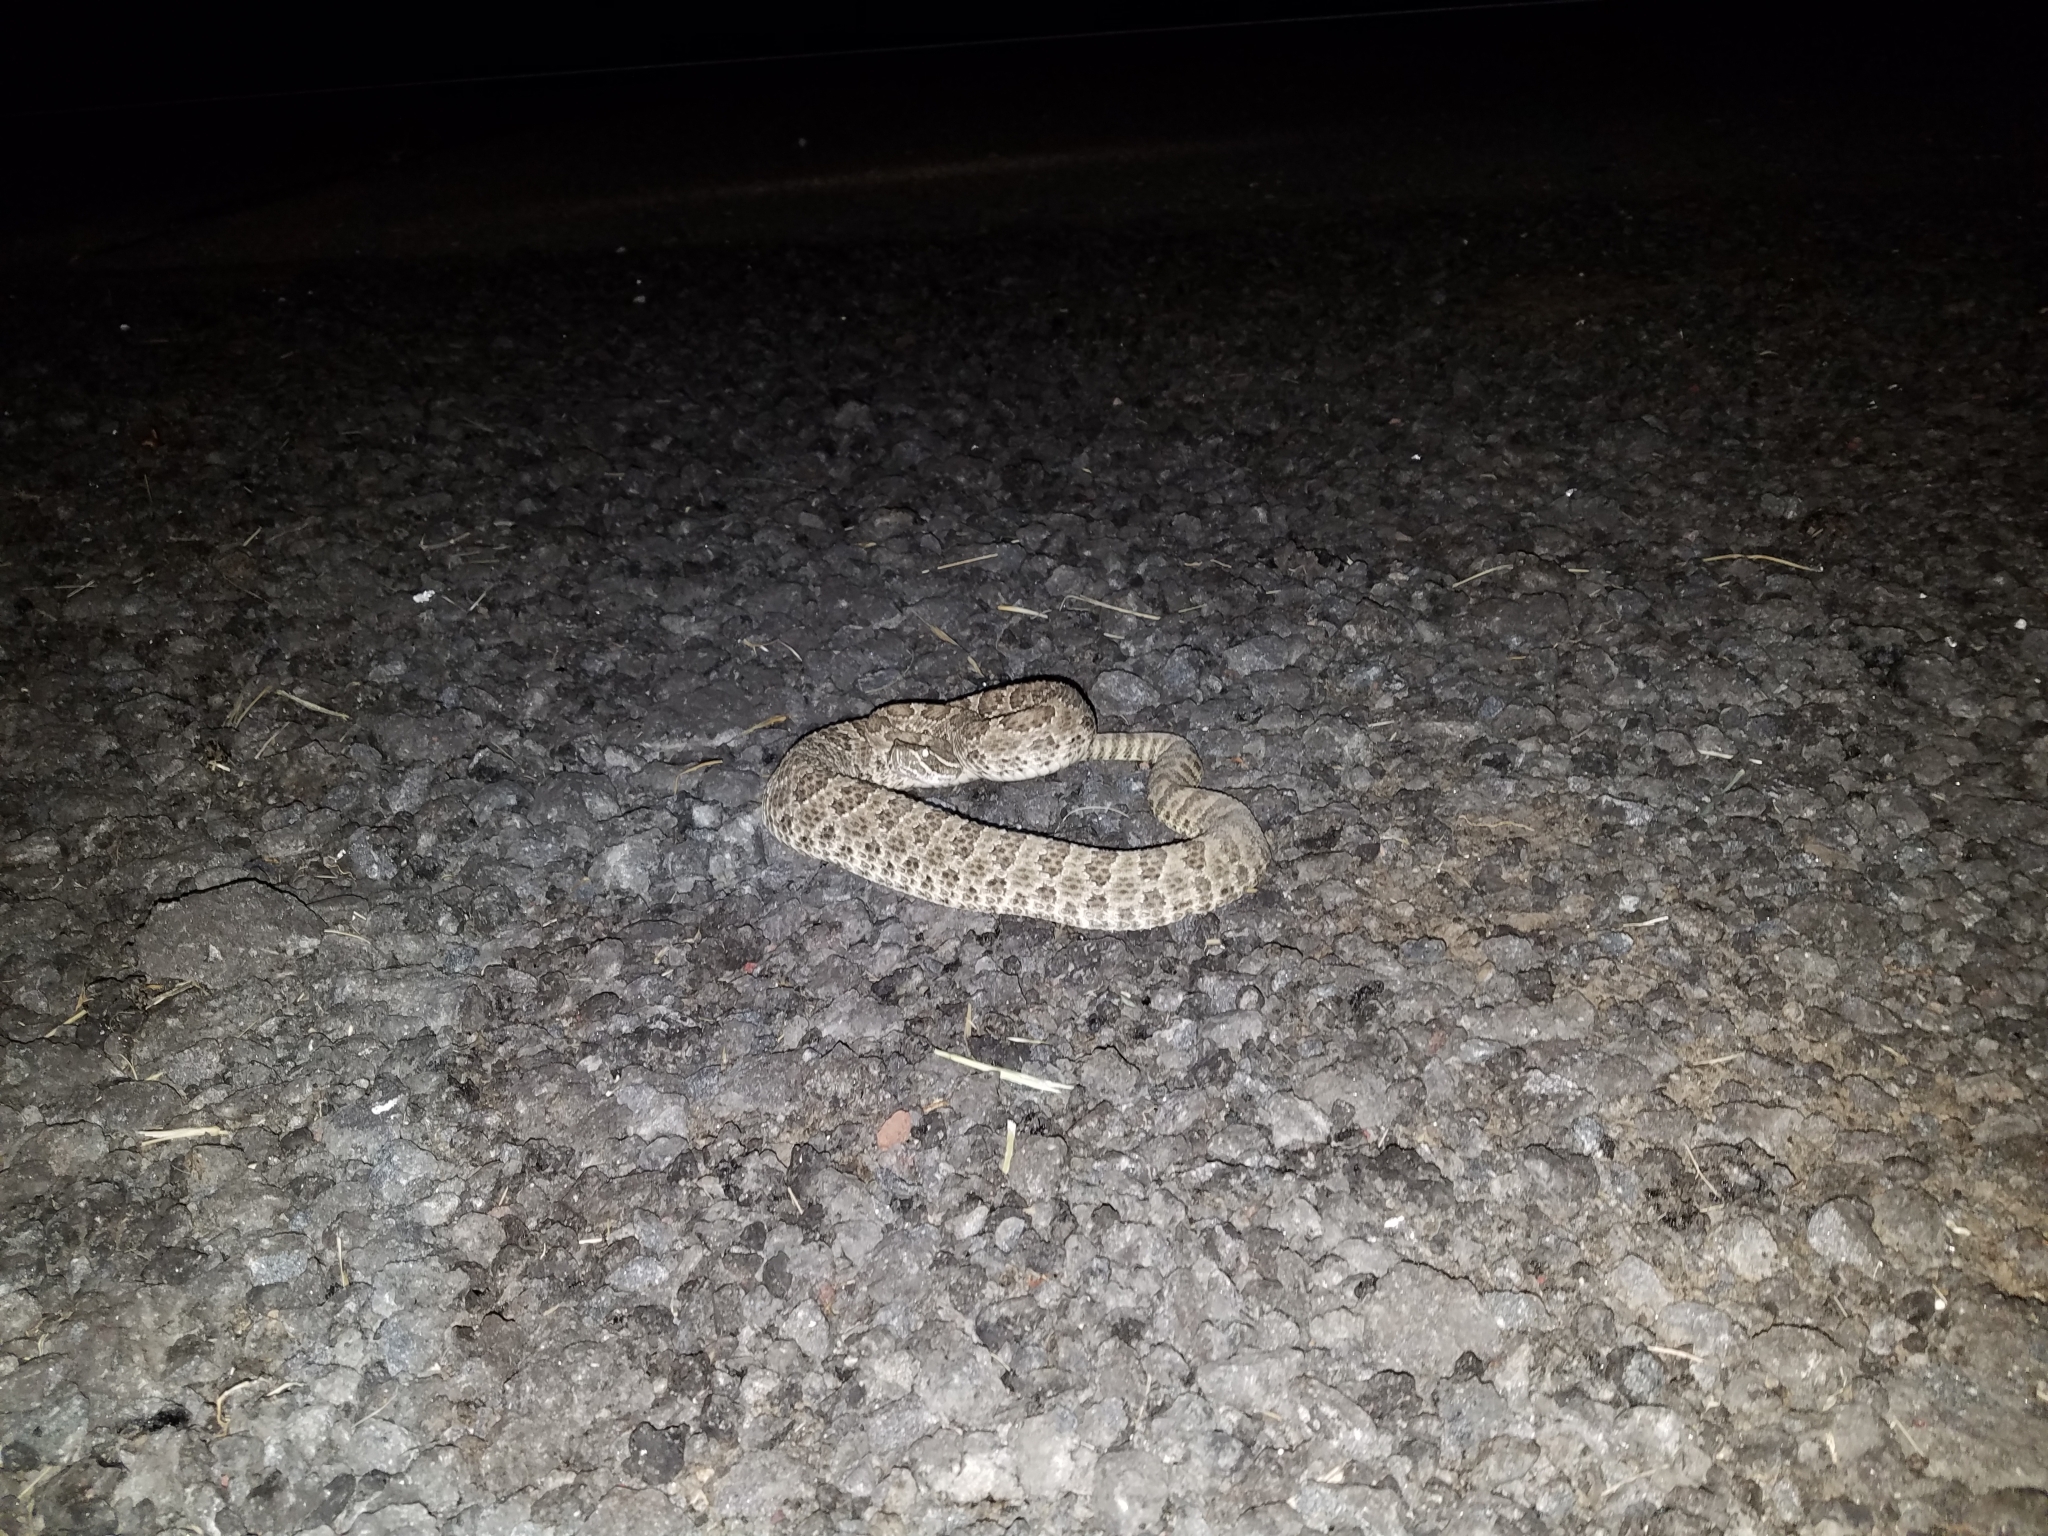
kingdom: Animalia
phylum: Chordata
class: Squamata
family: Viperidae
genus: Crotalus
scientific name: Crotalus viridis
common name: Prairie rattlesnake
